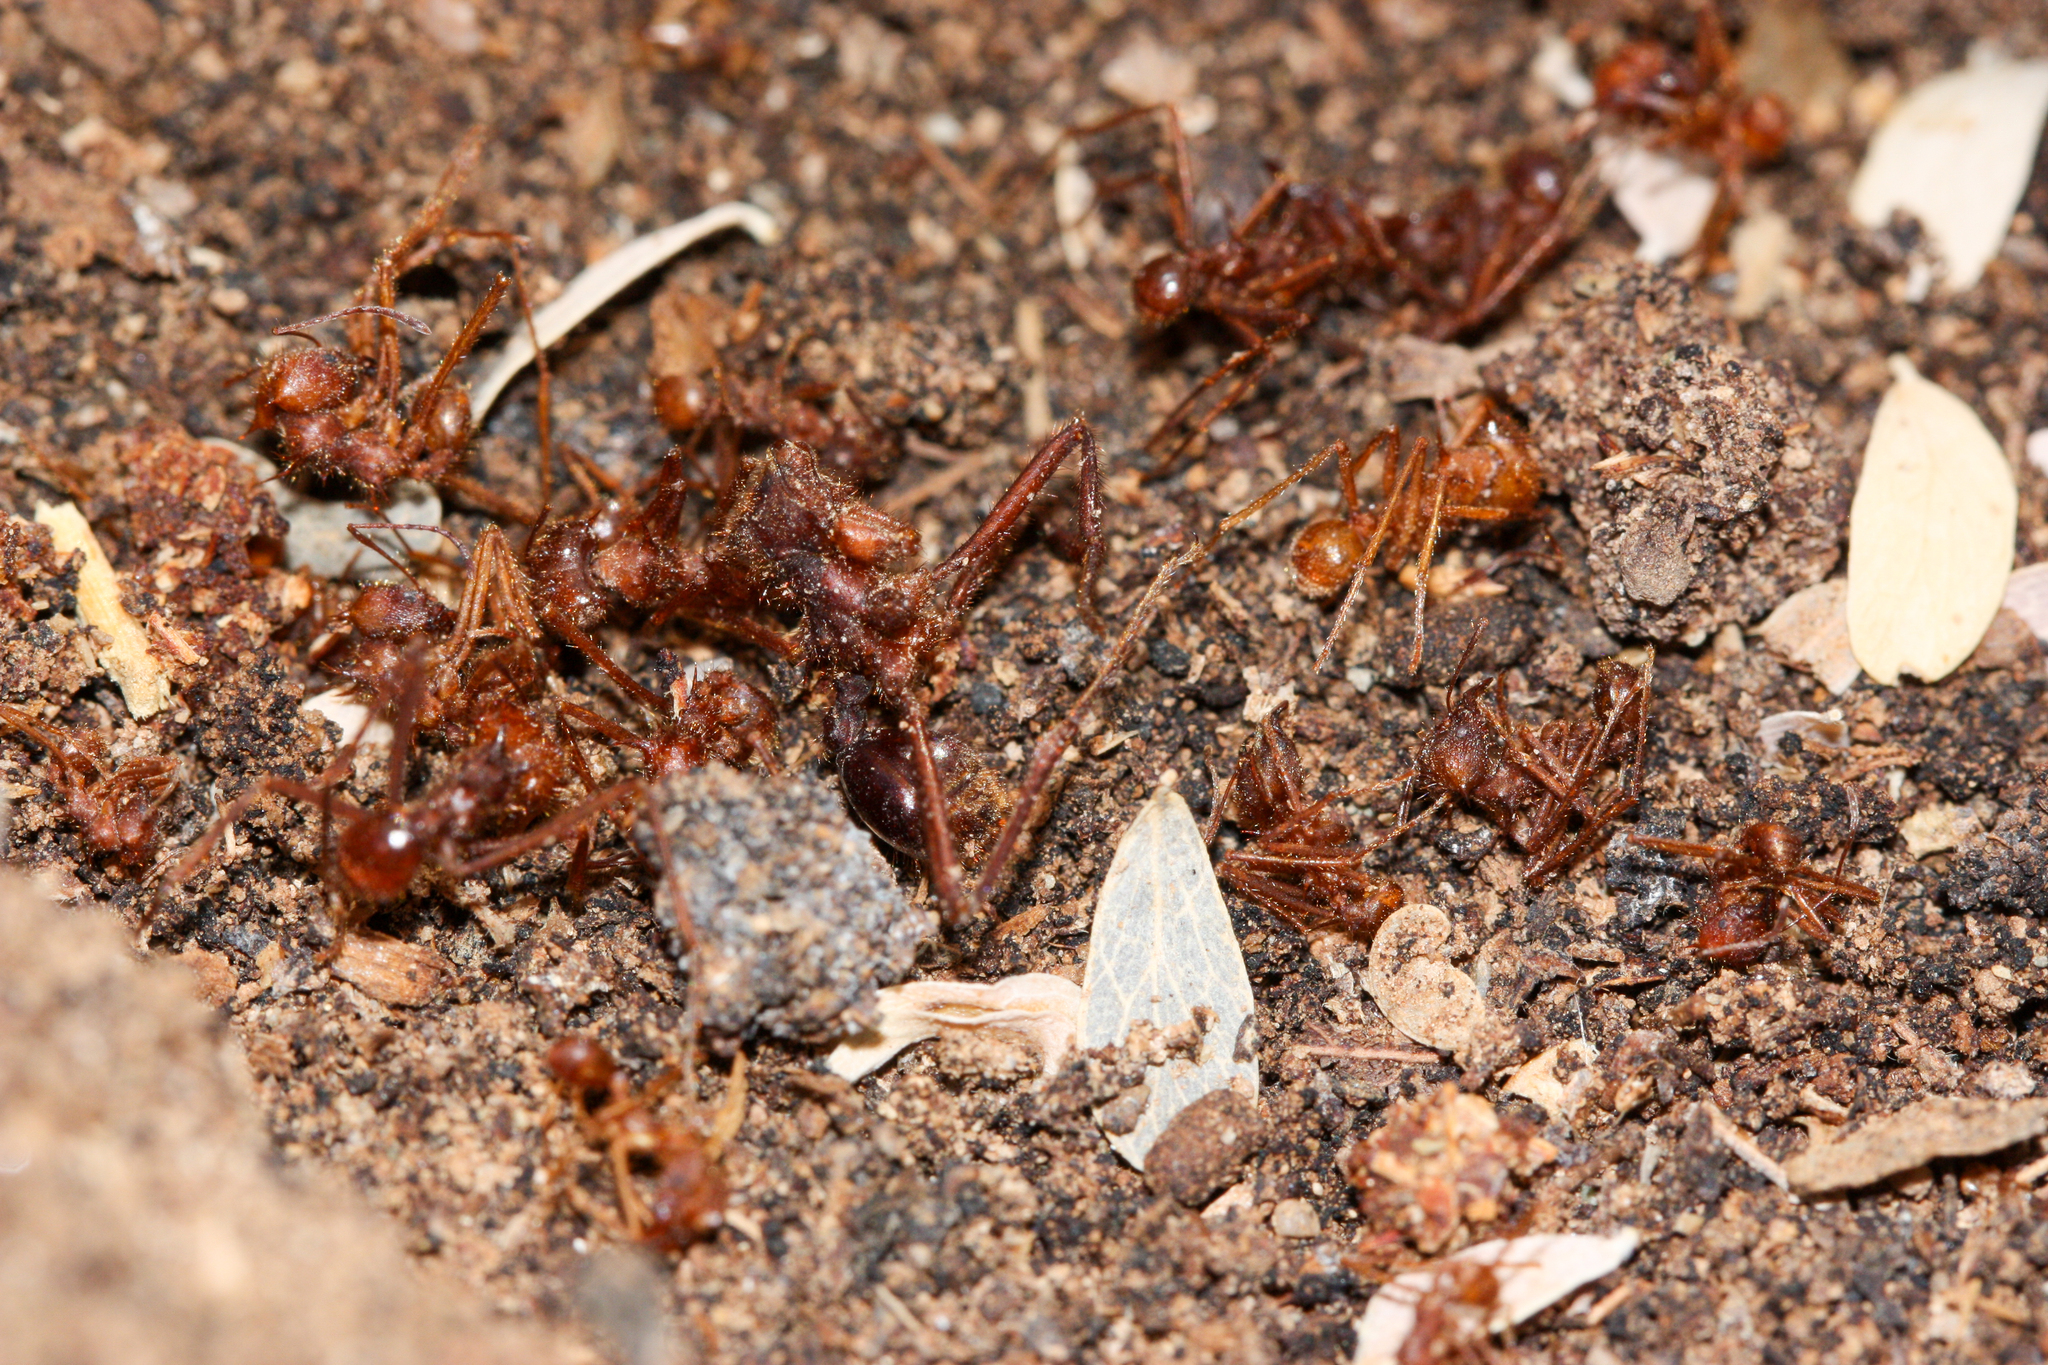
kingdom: Animalia
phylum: Arthropoda
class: Insecta
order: Hymenoptera
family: Formicidae
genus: Atta
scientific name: Atta mexicana
